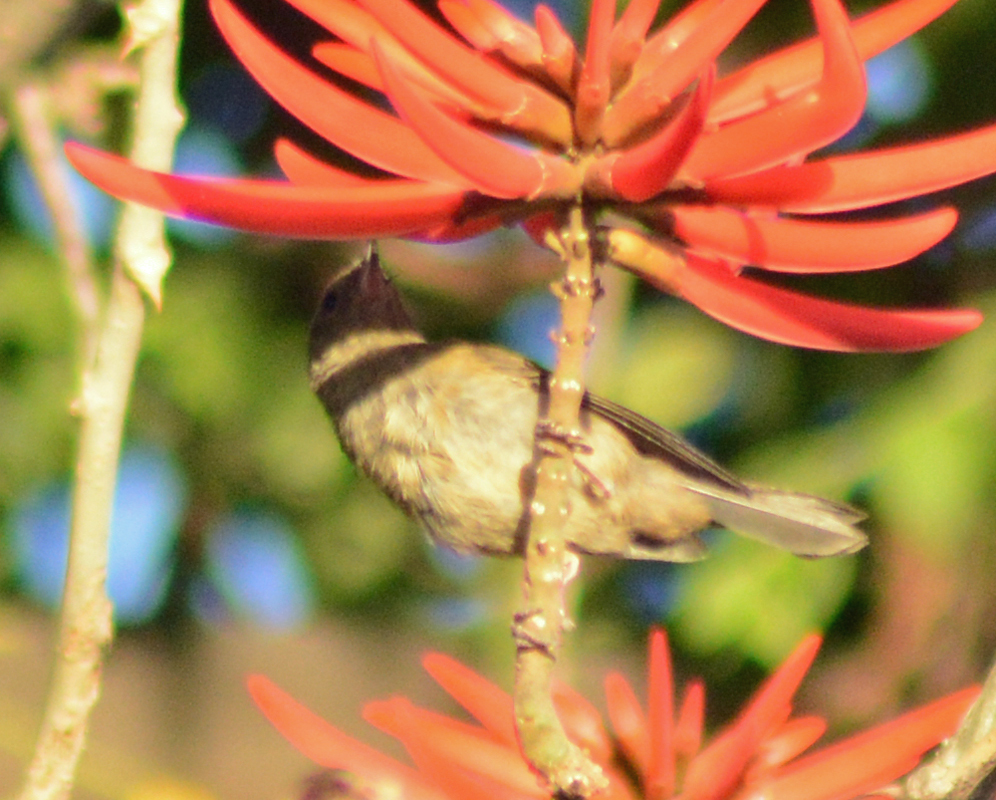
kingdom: Animalia
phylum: Chordata
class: Aves
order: Passeriformes
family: Thraupidae
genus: Diglossa
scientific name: Diglossa baritula
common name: Cinnamon-bellied flowerpiercer
